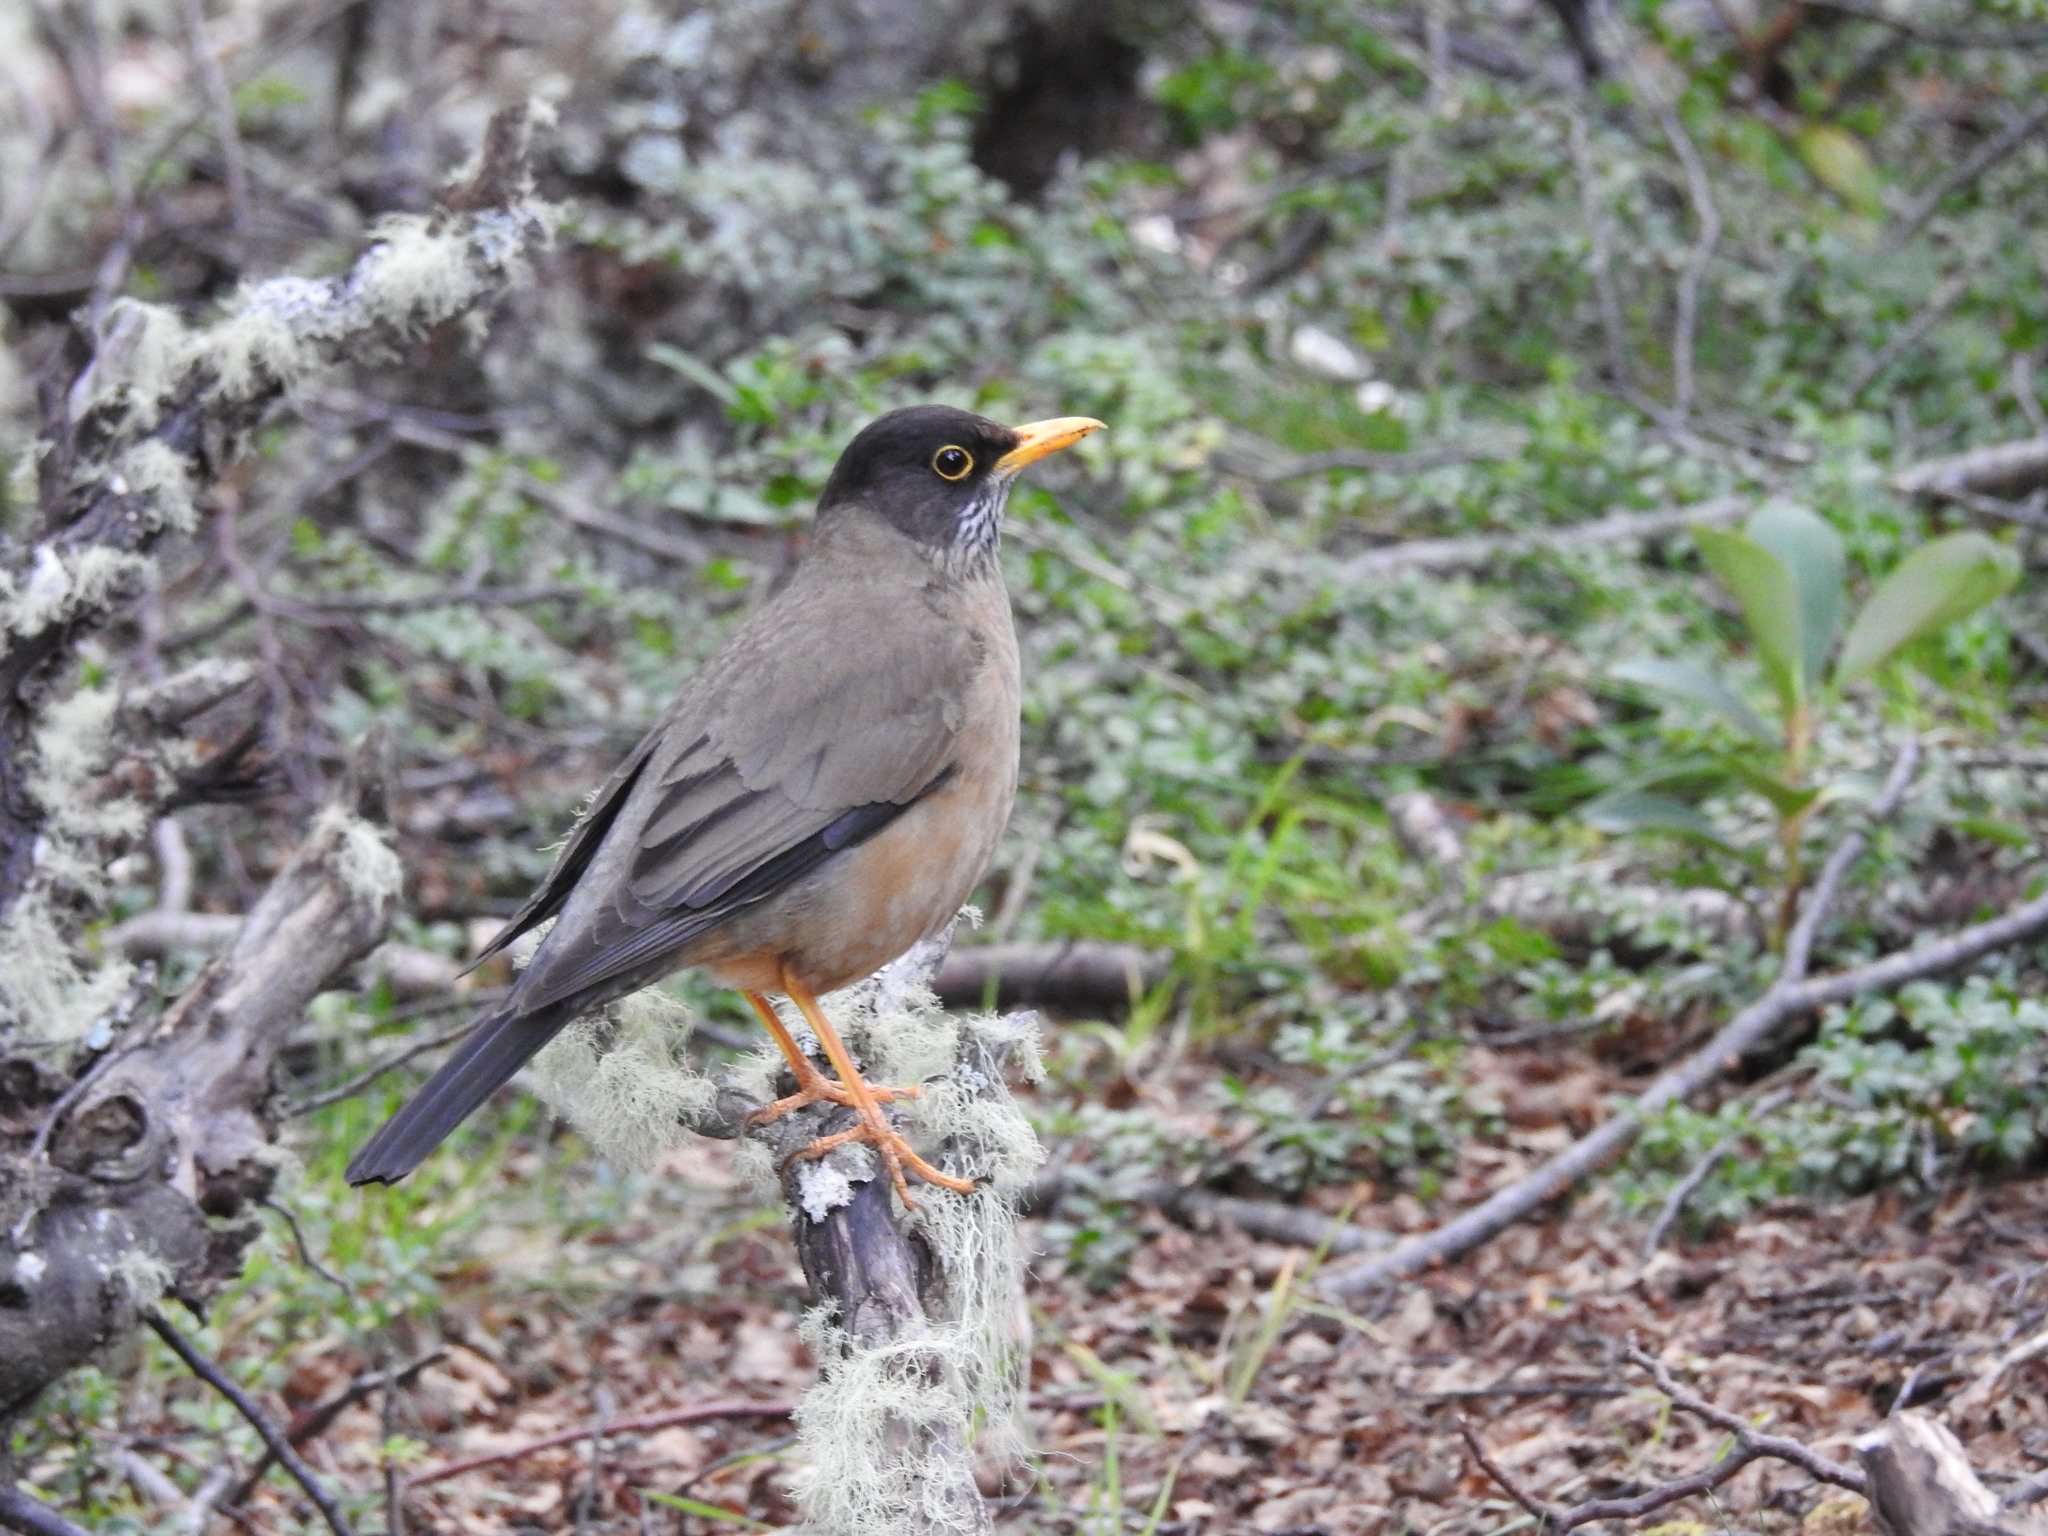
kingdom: Animalia
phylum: Chordata
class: Aves
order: Passeriformes
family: Turdidae
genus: Turdus
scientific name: Turdus falcklandii
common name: Austral thrush
